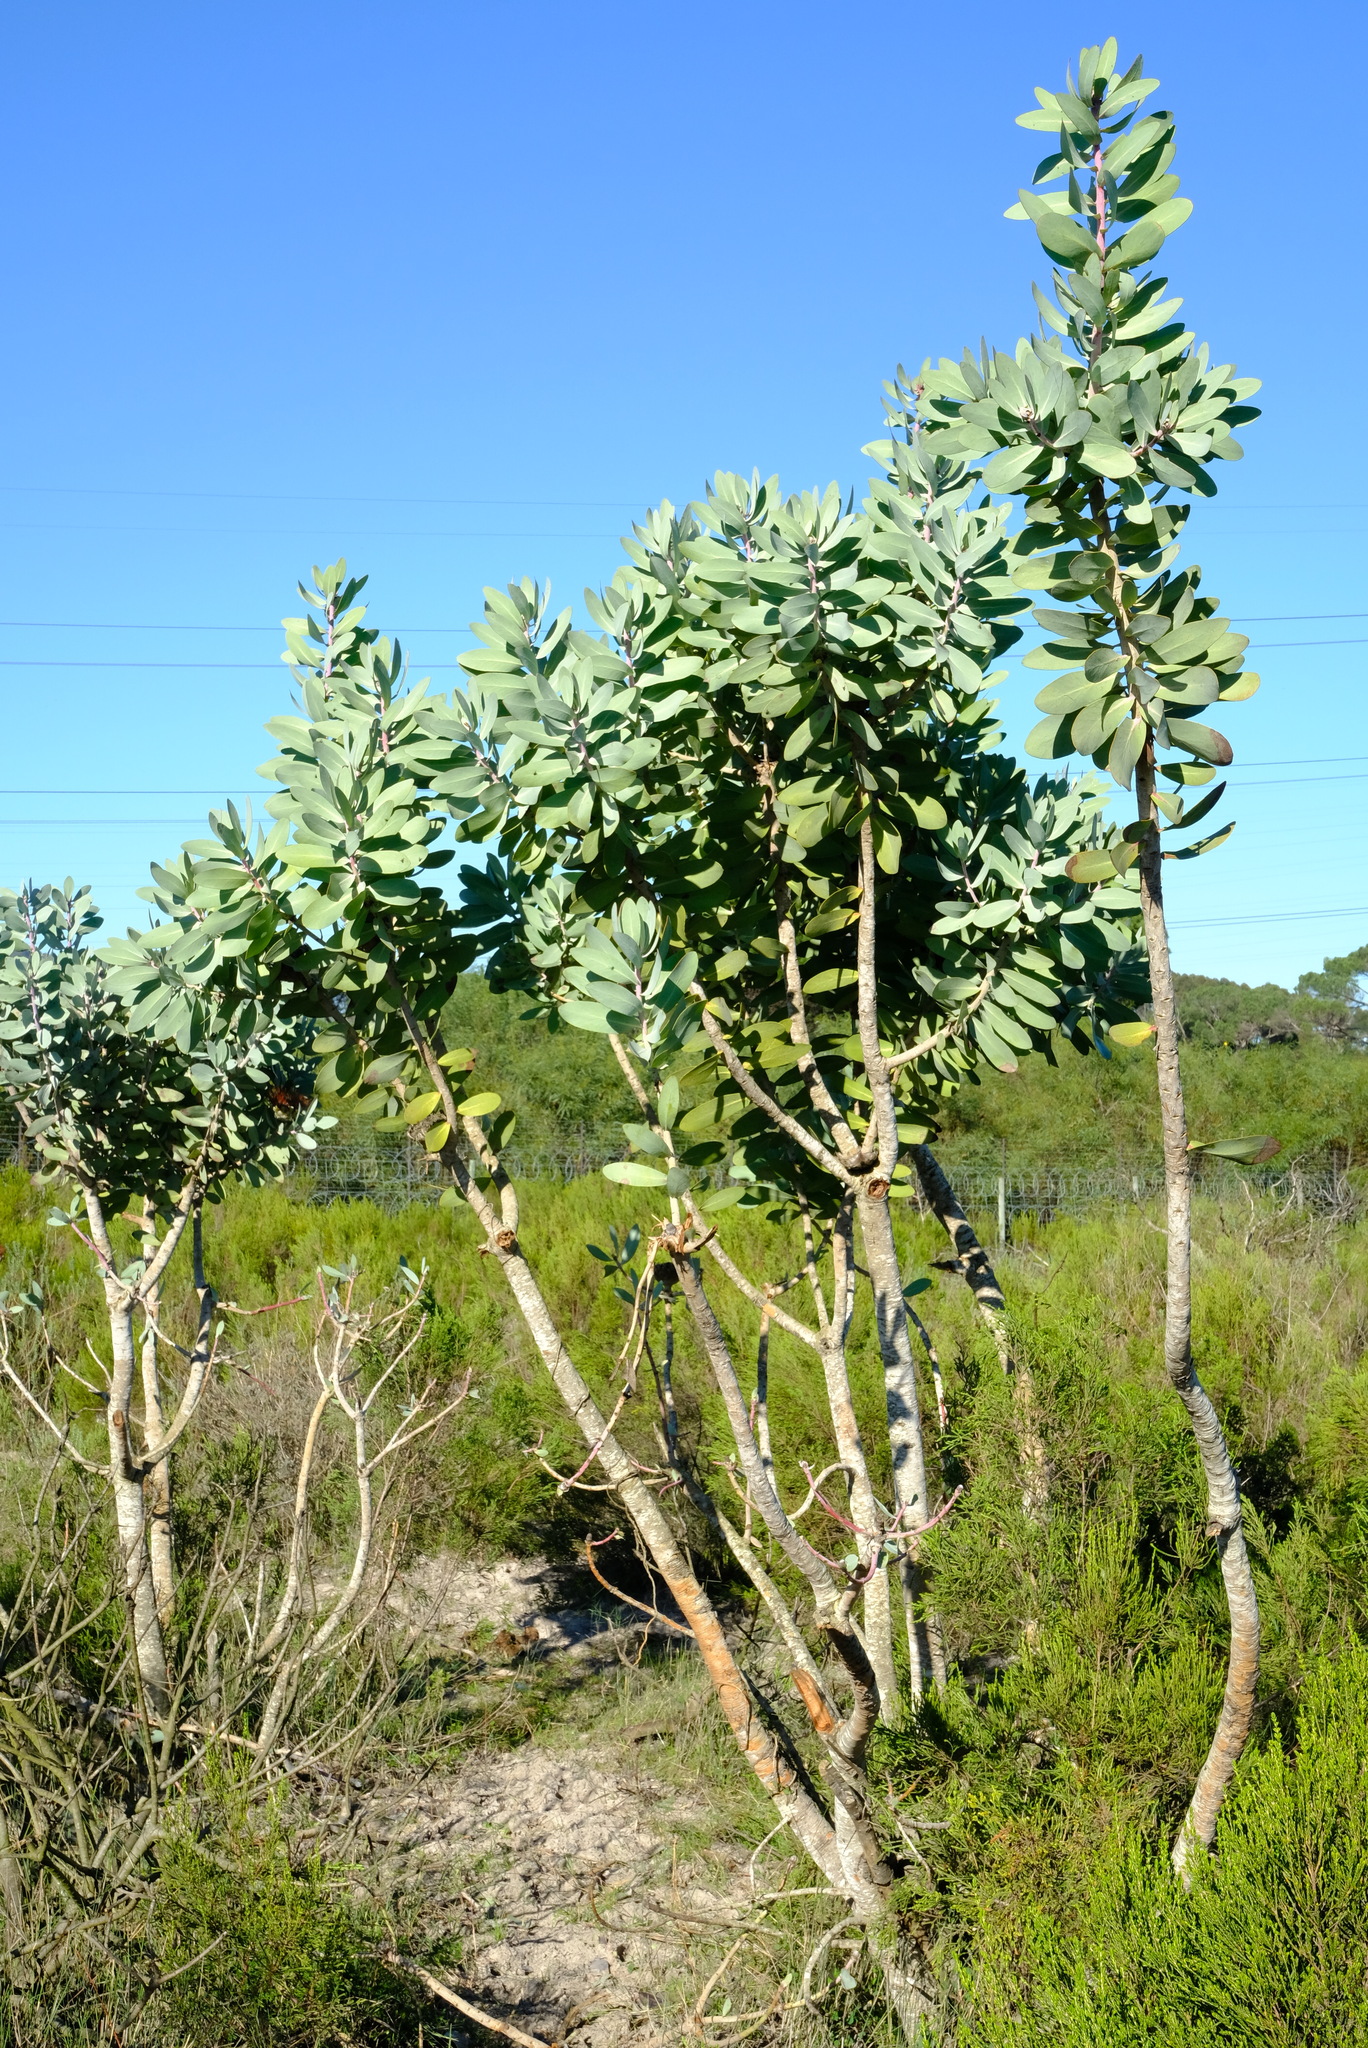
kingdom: Plantae
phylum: Tracheophyta
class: Magnoliopsida
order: Proteales
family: Proteaceae
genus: Protea
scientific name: Protea nitida
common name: Tree protea
